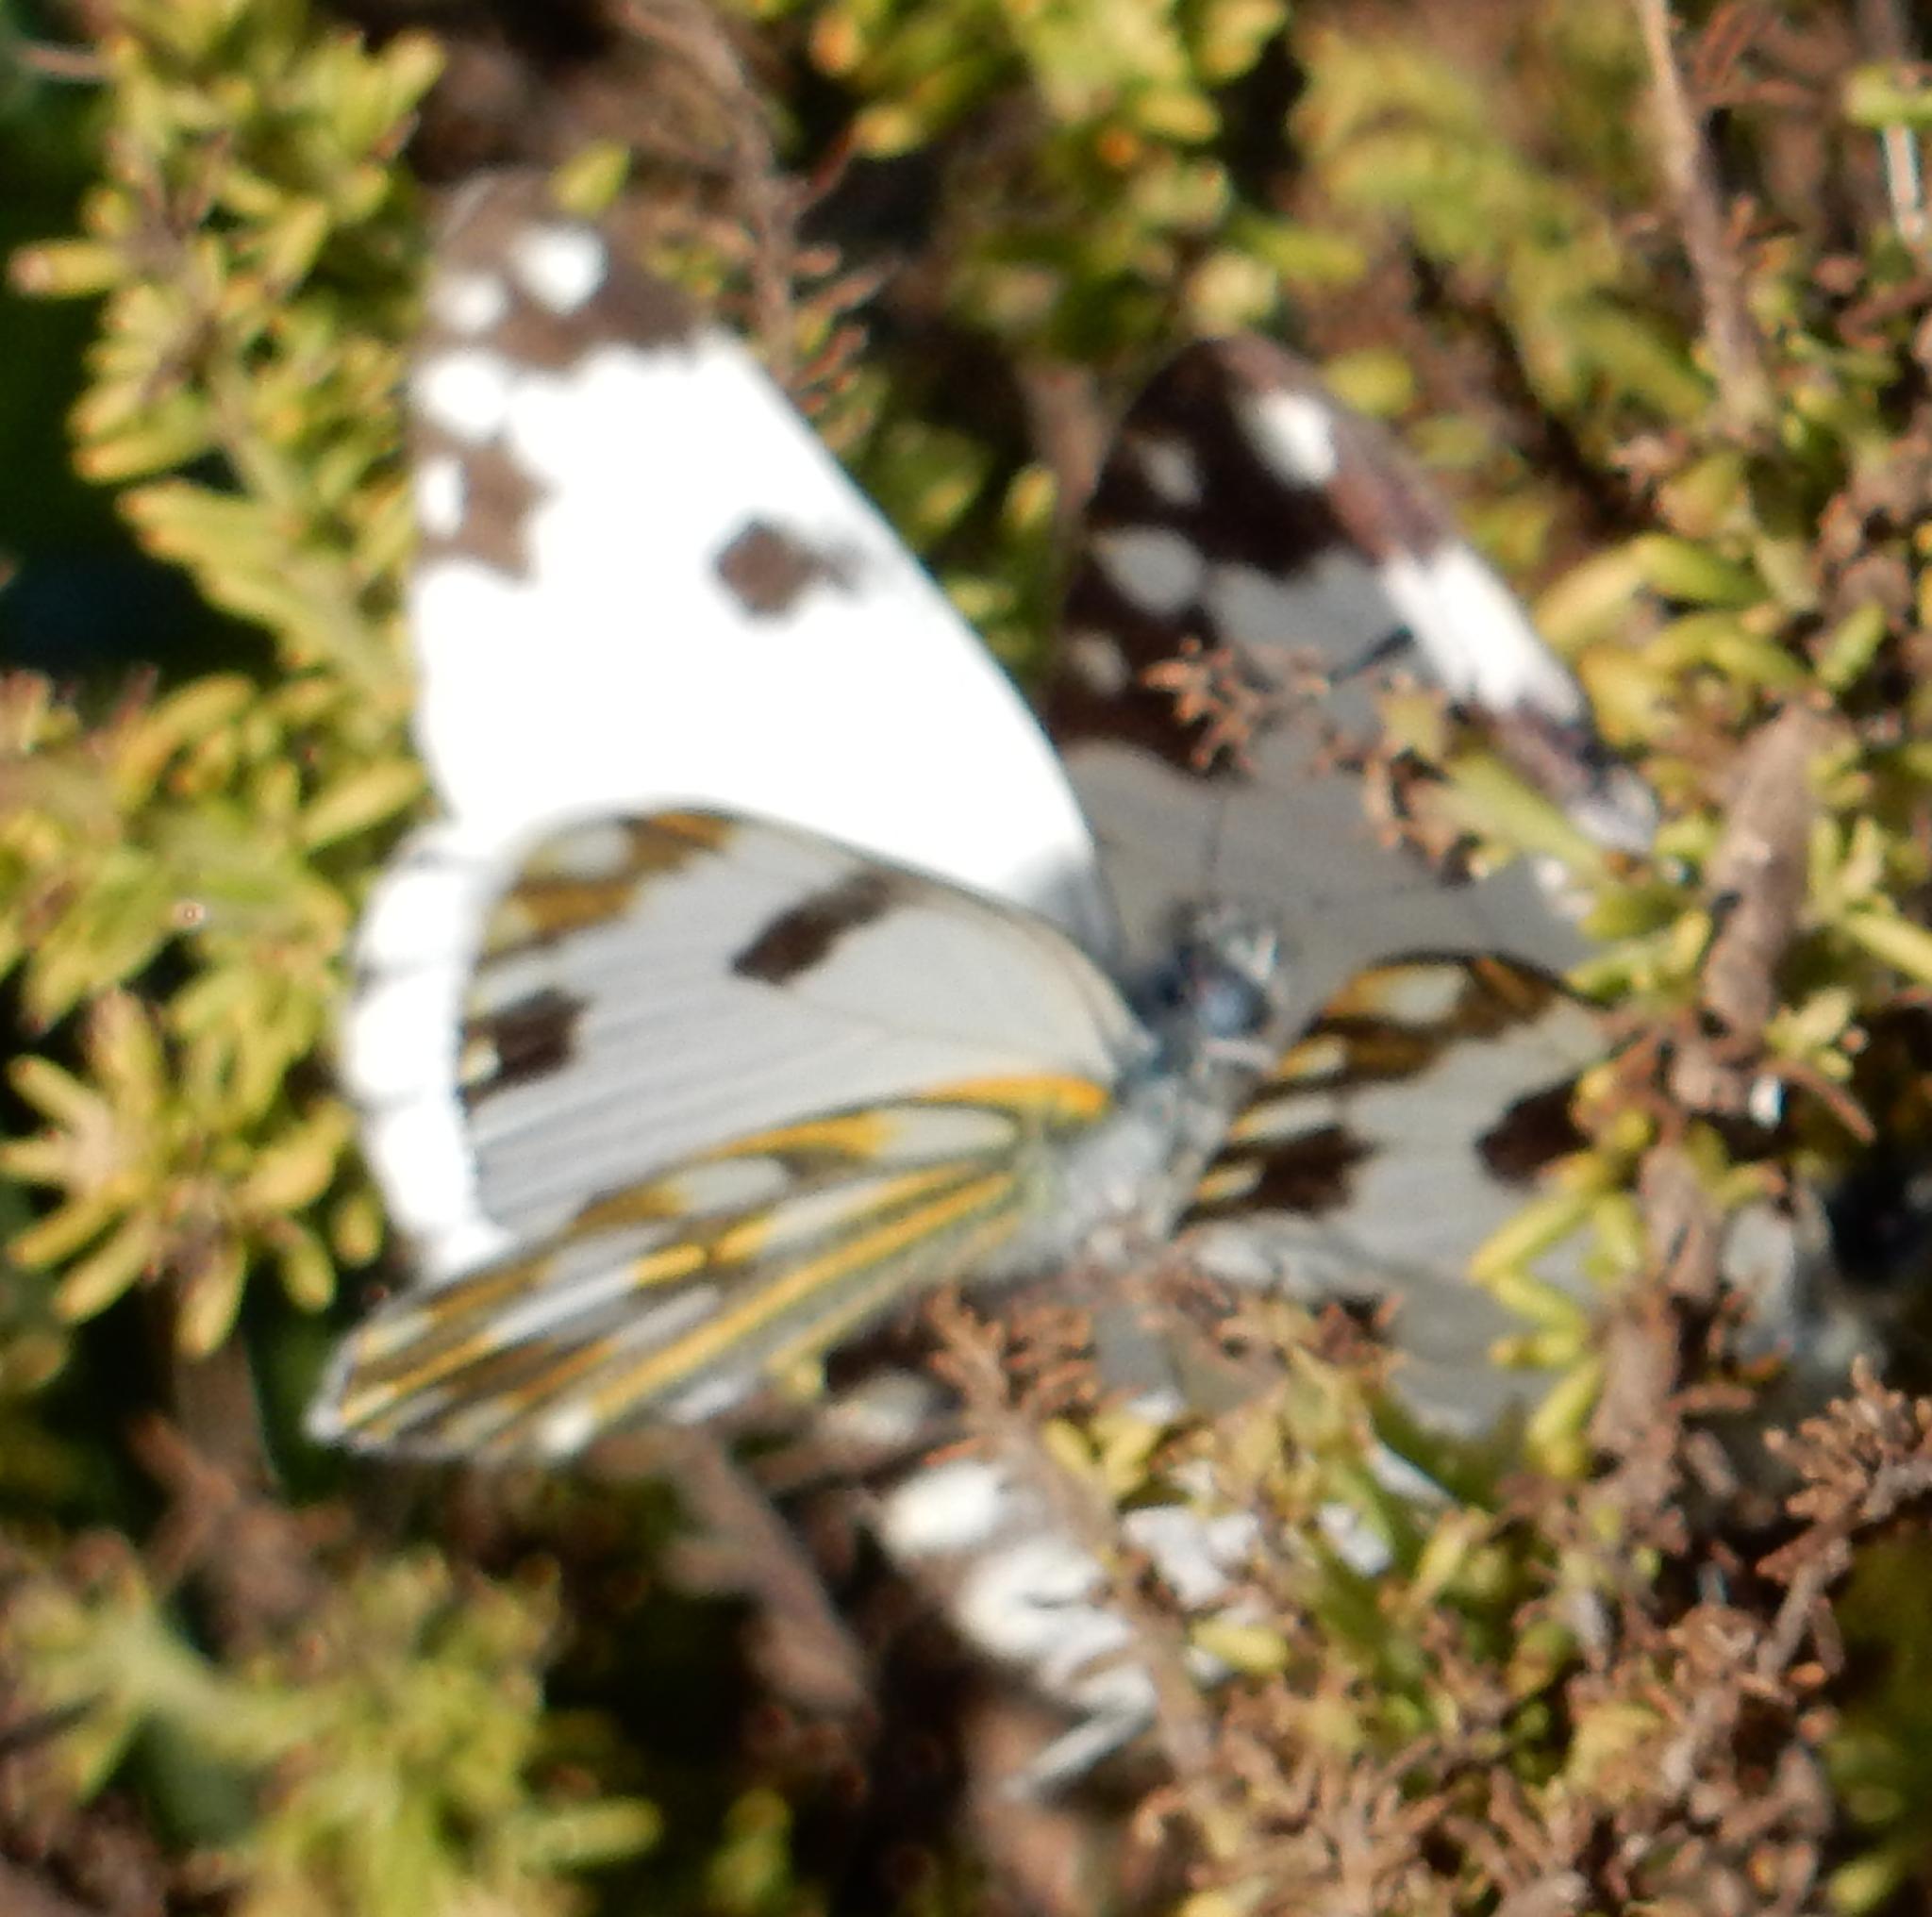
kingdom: Animalia
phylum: Arthropoda
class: Insecta
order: Lepidoptera
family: Pieridae
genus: Pontia
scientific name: Pontia helice
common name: Meadow white
